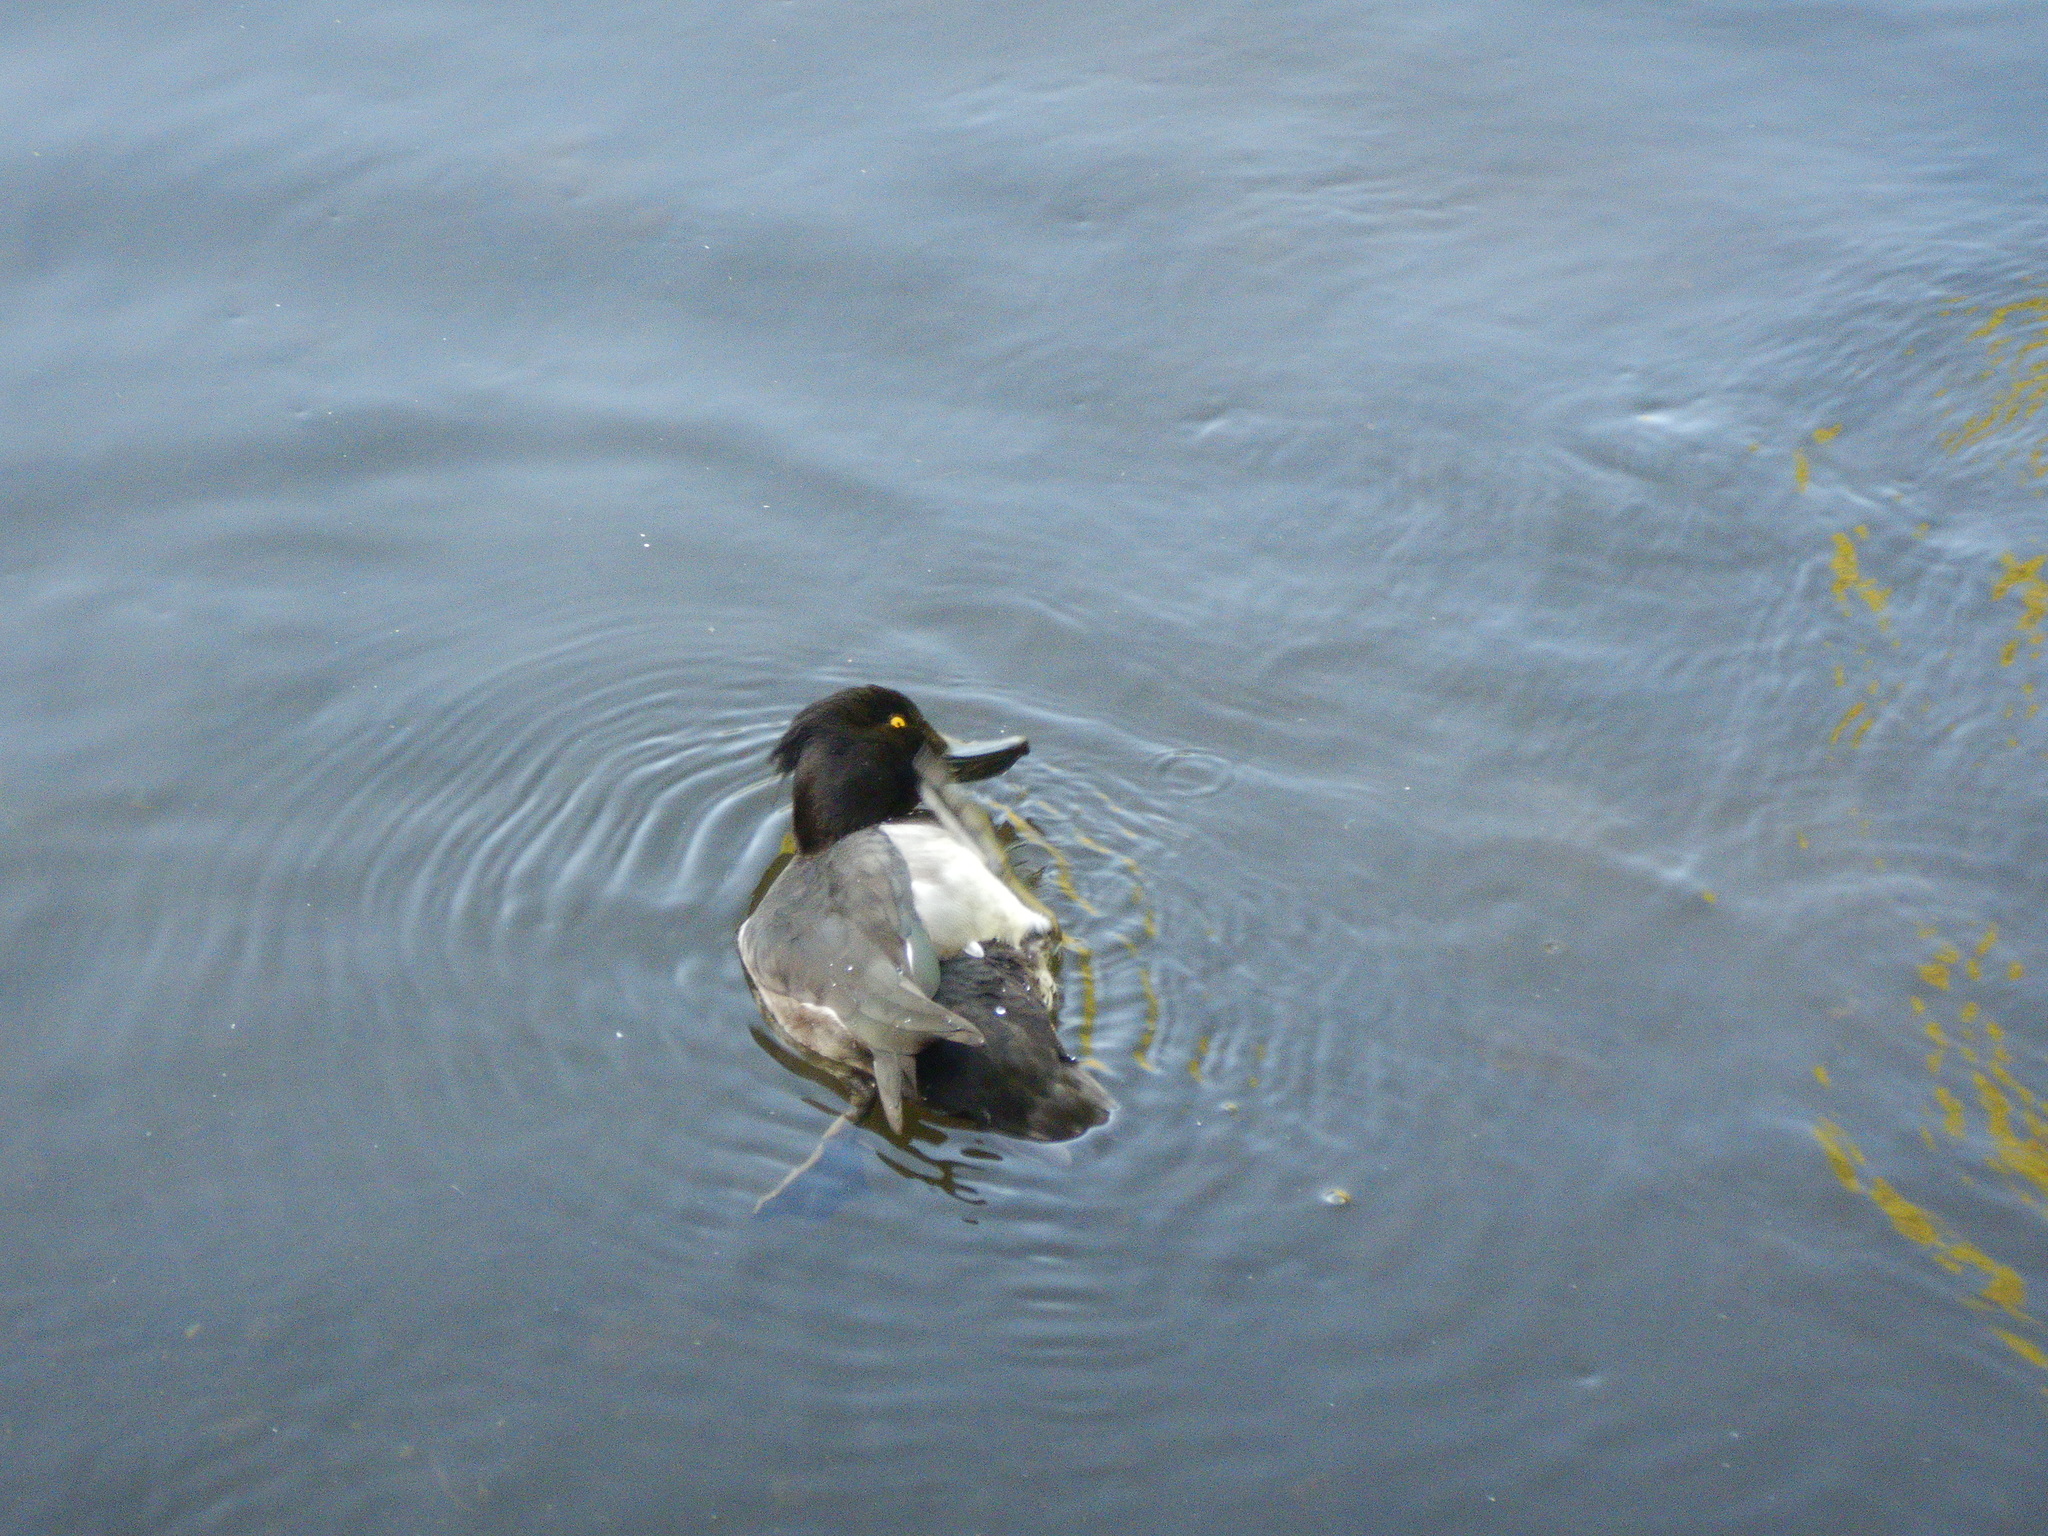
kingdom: Animalia
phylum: Chordata
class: Aves
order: Anseriformes
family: Anatidae
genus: Aythya
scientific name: Aythya fuligula
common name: Tufted duck
